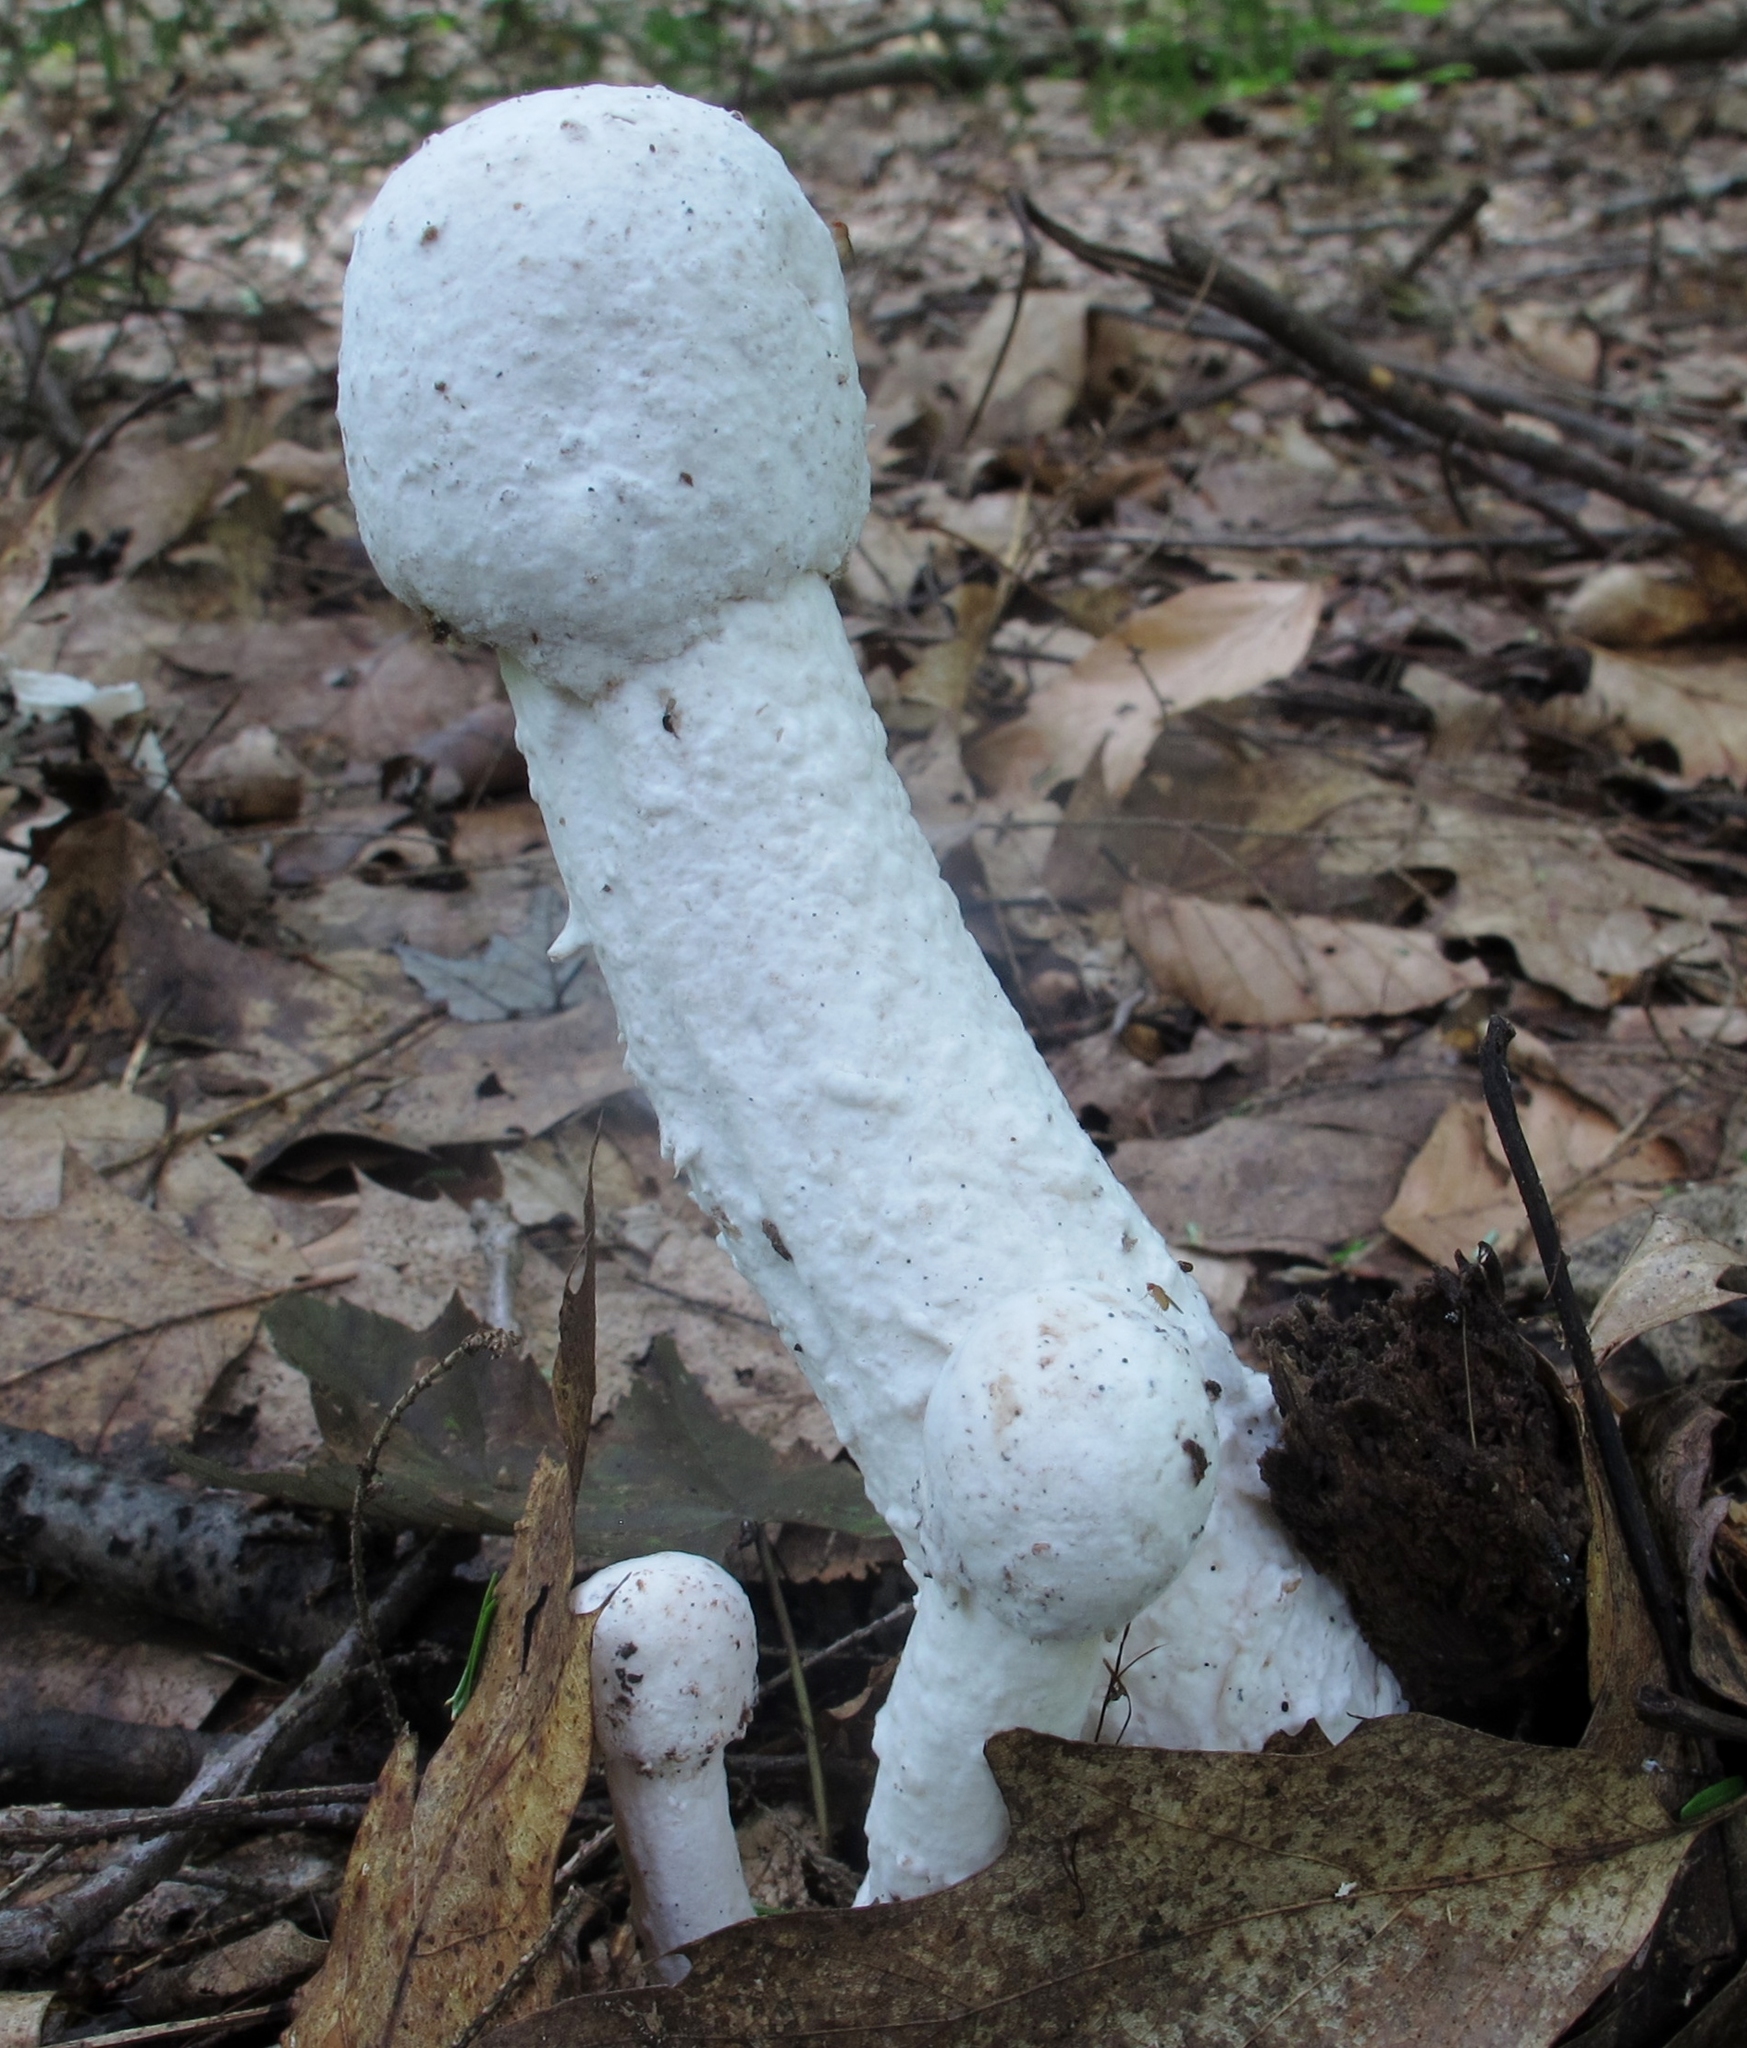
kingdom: Fungi
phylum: Ascomycota
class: Sordariomycetes
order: Hypocreales
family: Hypocreaceae
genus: Hypomyces
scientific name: Hypomyces hyalinus
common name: Amanita mold
